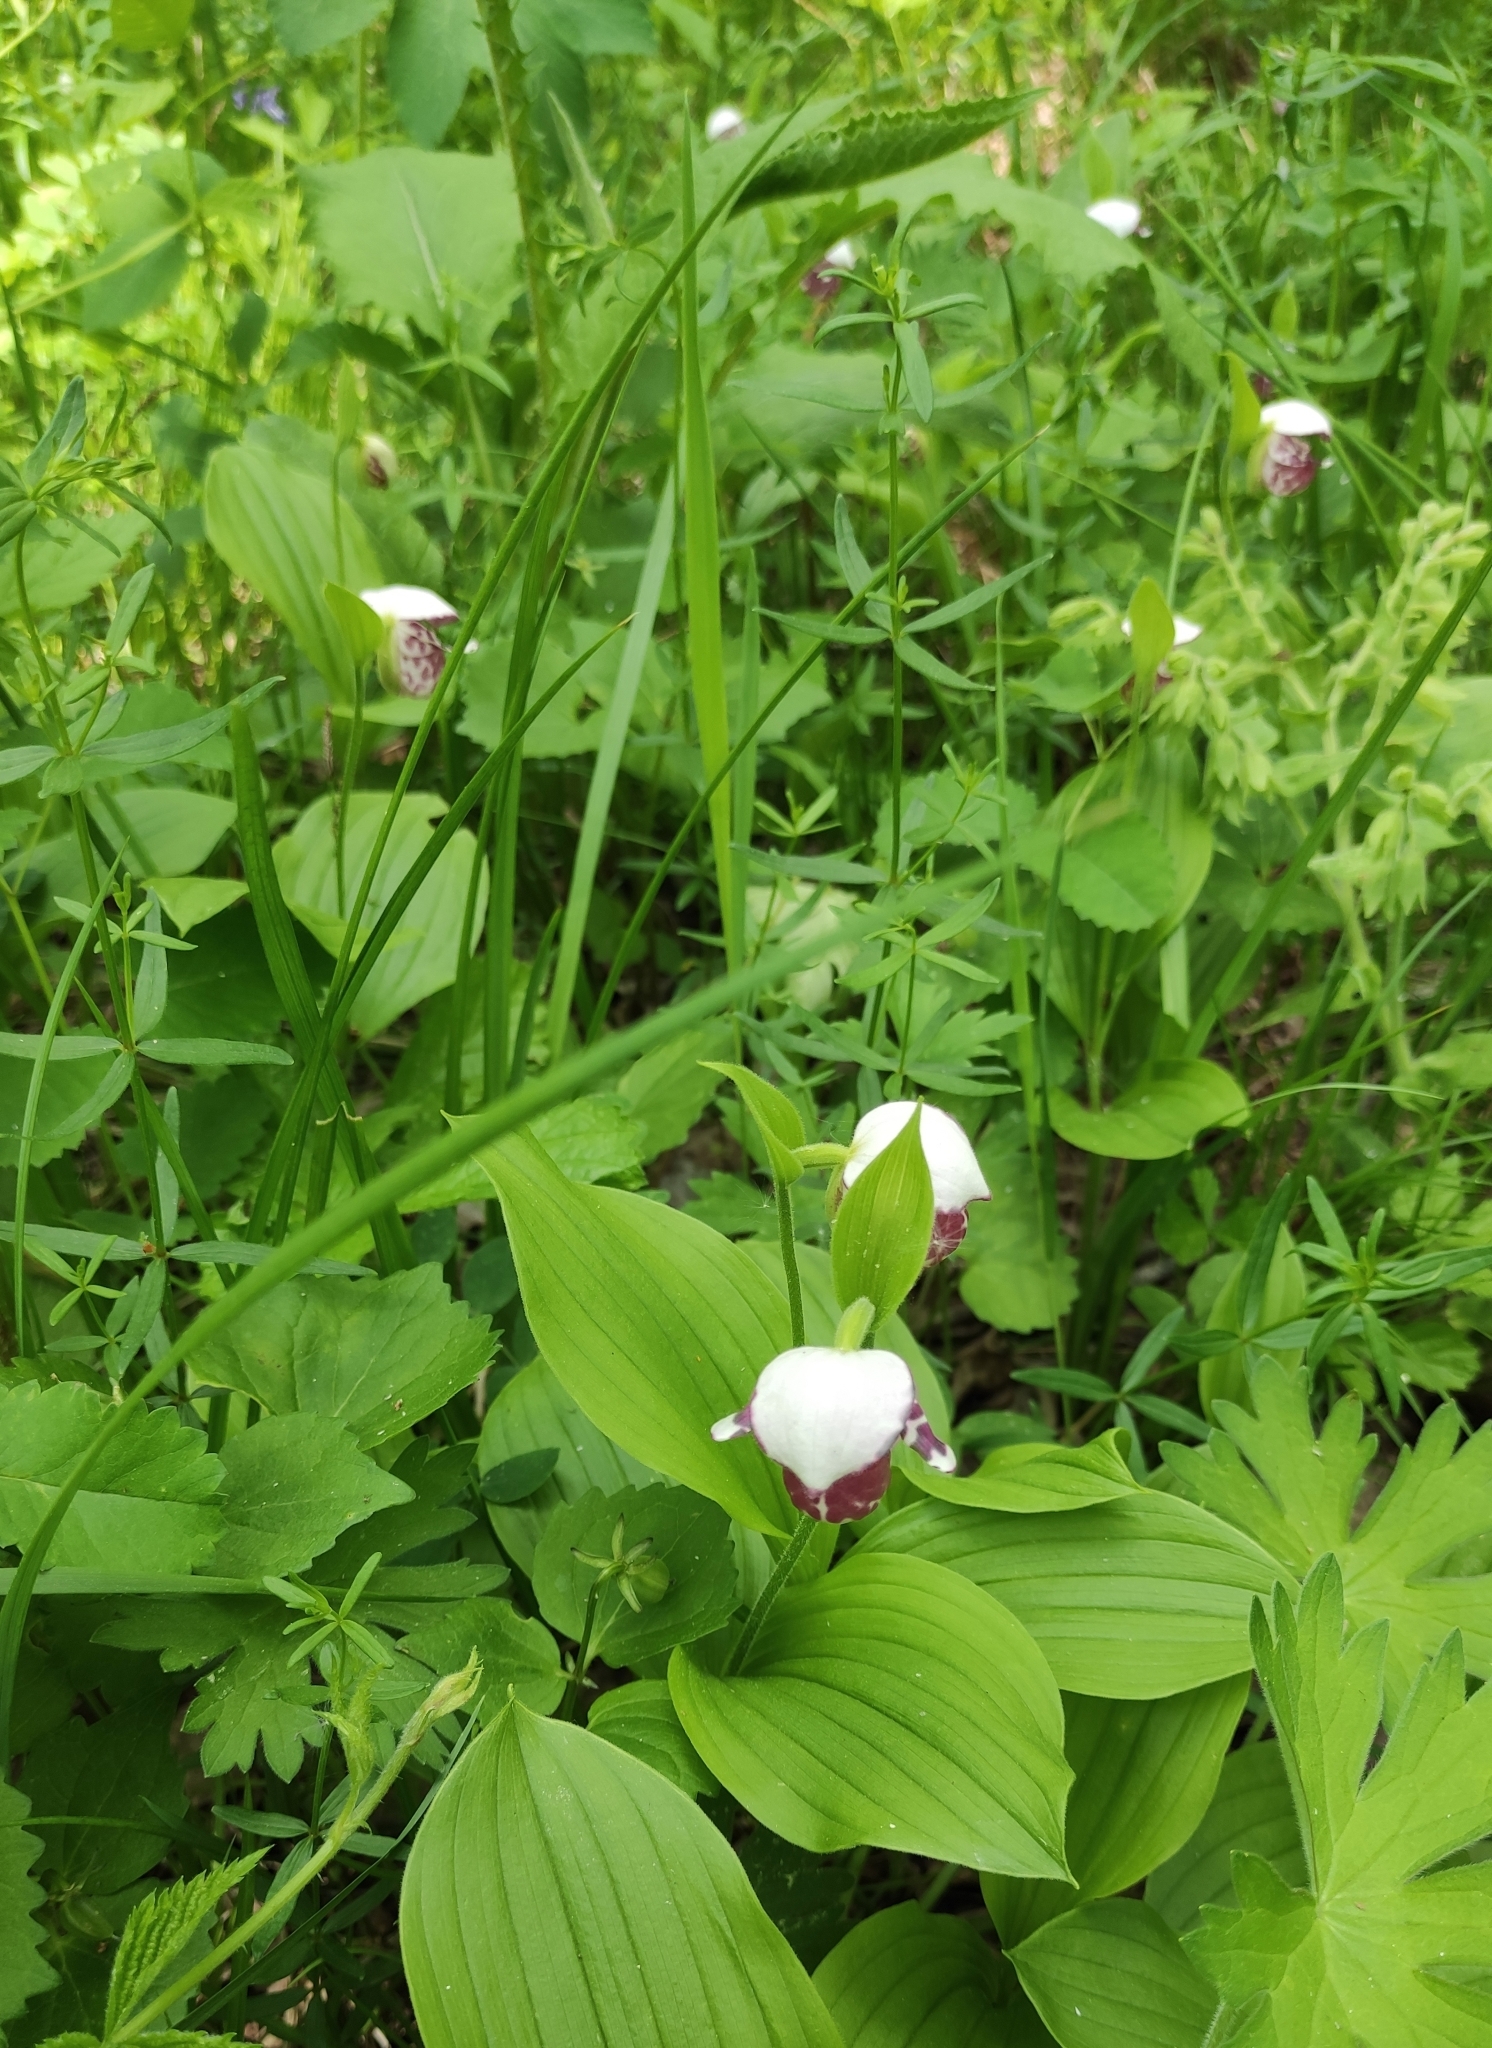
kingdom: Plantae
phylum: Tracheophyta
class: Liliopsida
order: Asparagales
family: Orchidaceae
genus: Cypripedium
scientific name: Cypripedium guttatum
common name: Pink lady slipper
